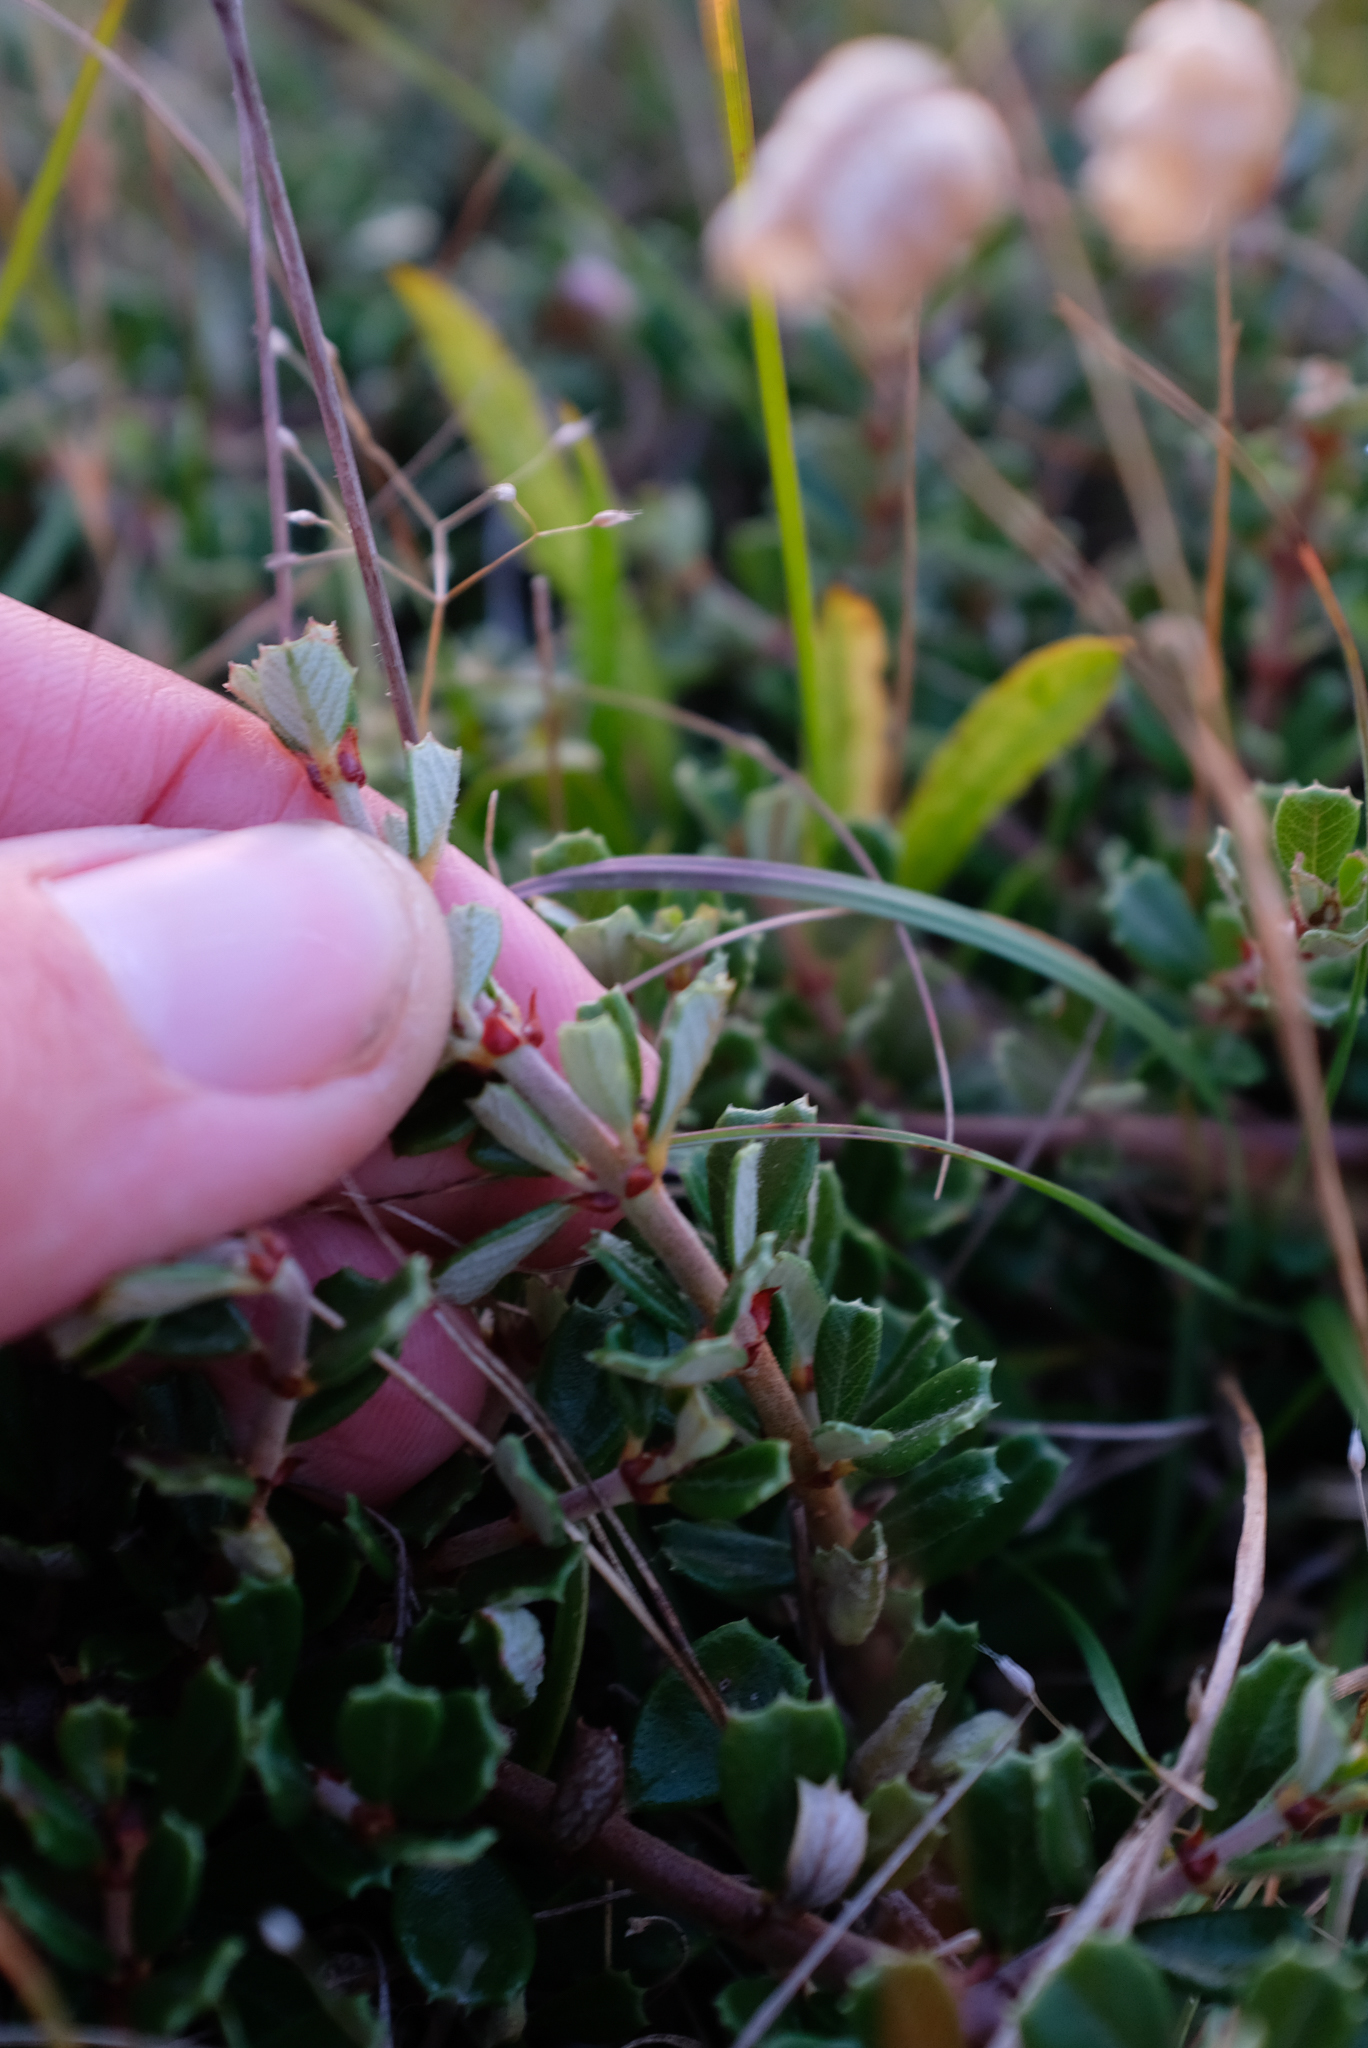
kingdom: Plantae
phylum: Tracheophyta
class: Magnoliopsida
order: Rosales
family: Rhamnaceae
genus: Ceanothus
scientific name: Ceanothus maritimus
